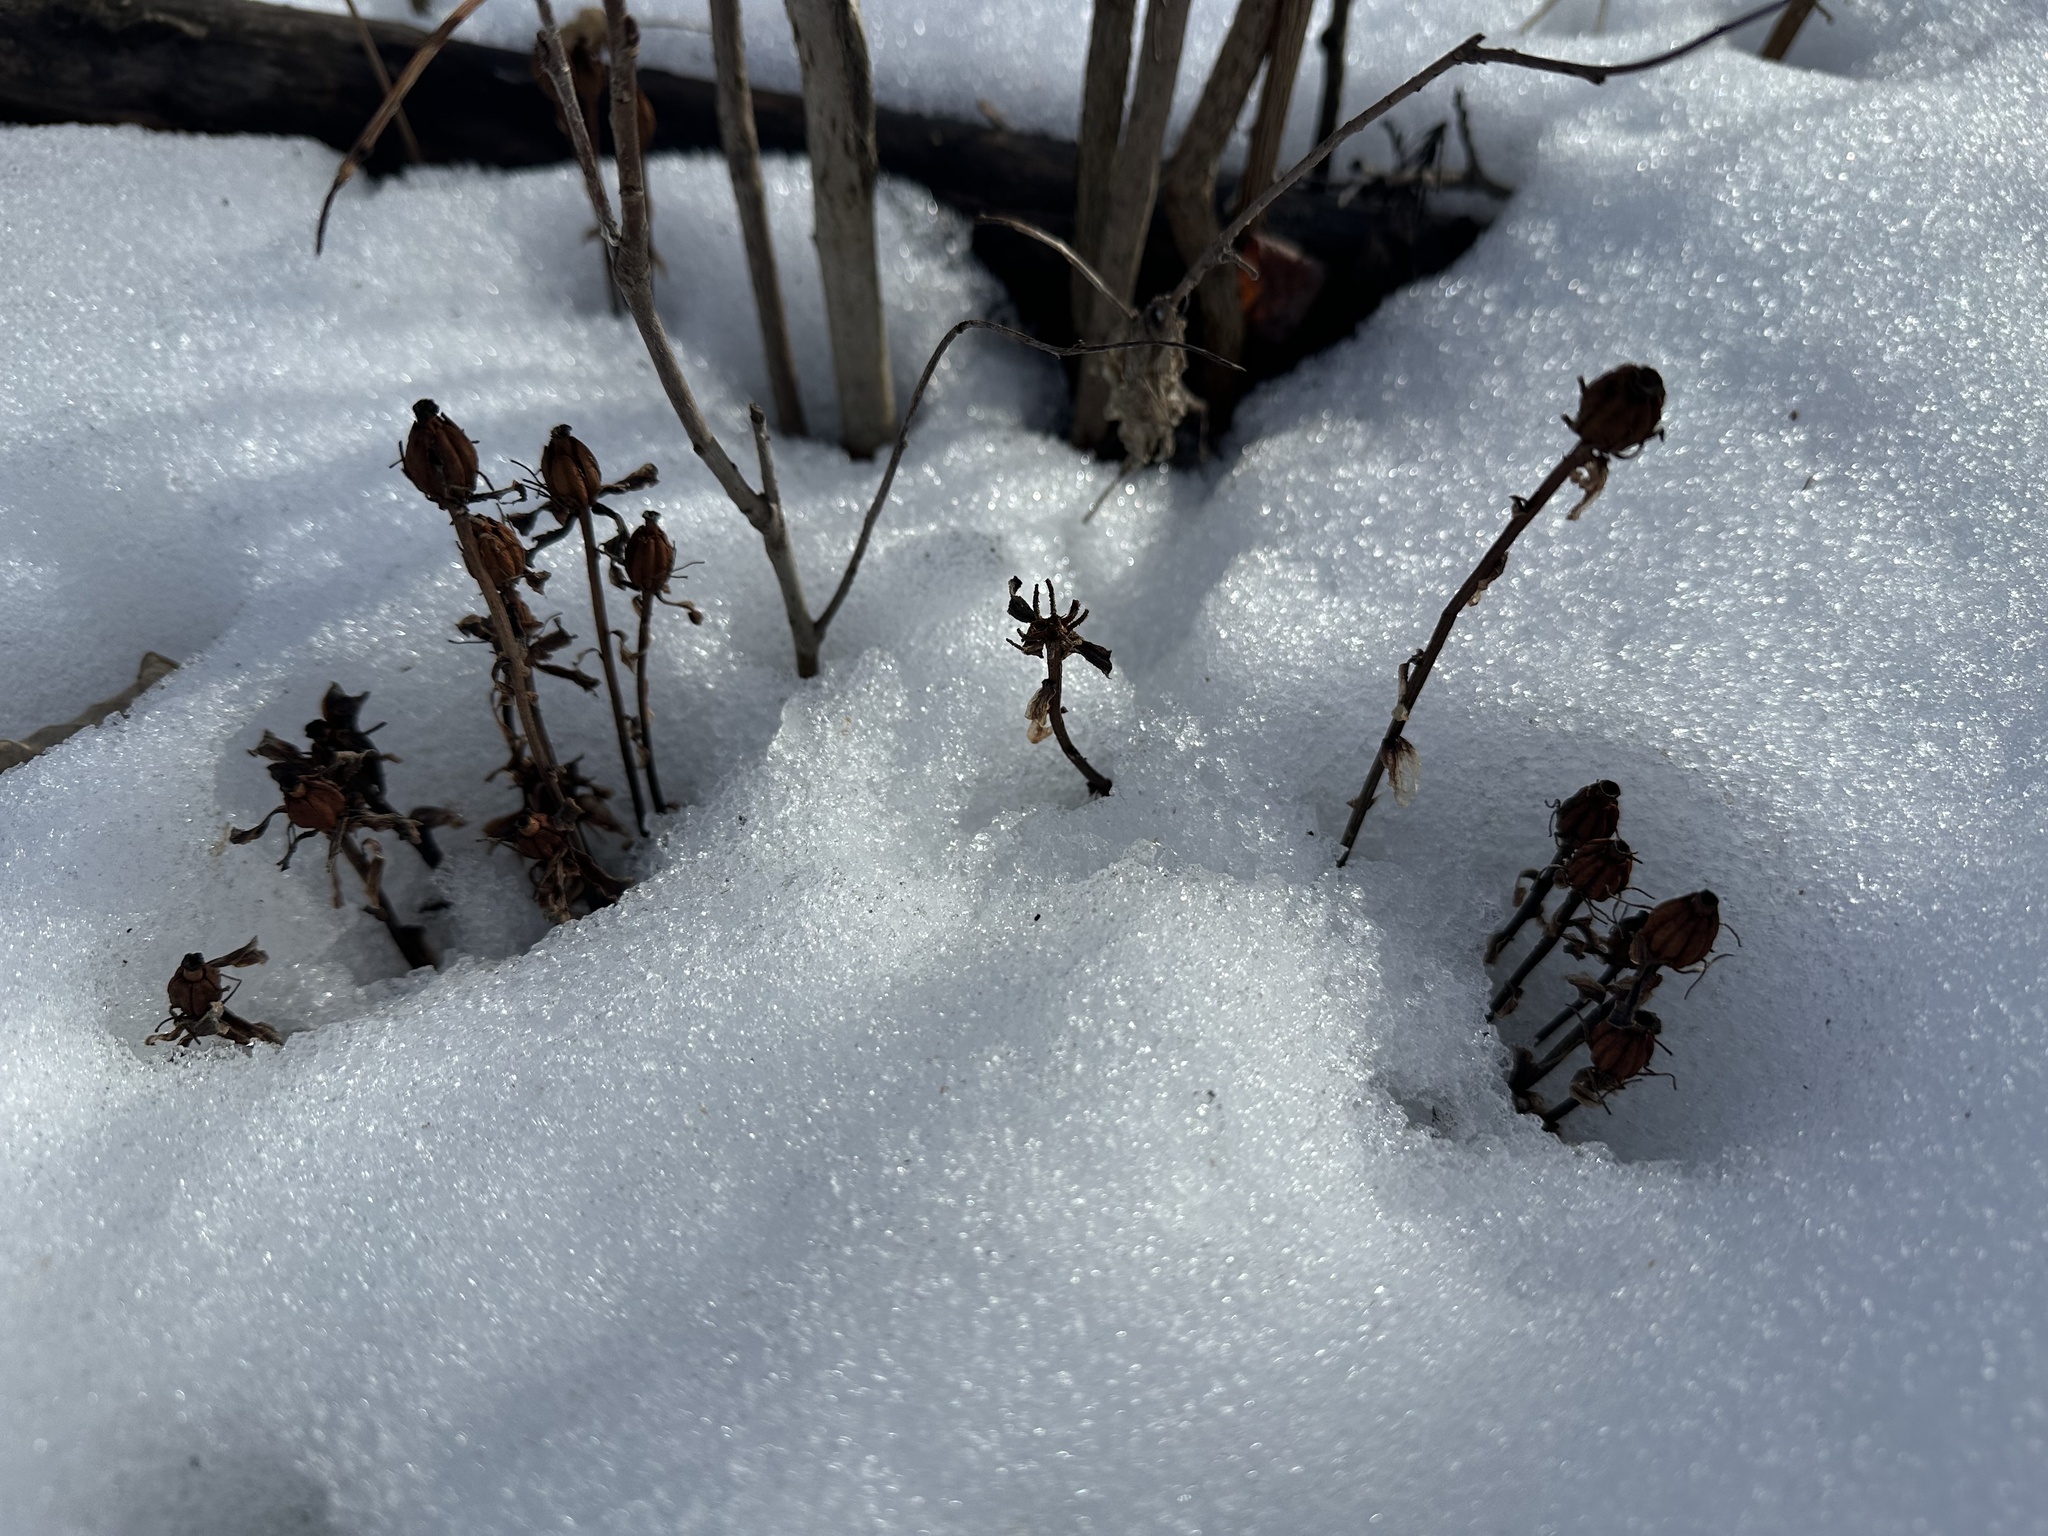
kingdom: Plantae
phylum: Tracheophyta
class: Magnoliopsida
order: Ericales
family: Ericaceae
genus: Monotropa
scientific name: Monotropa uniflora
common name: Convulsion root
